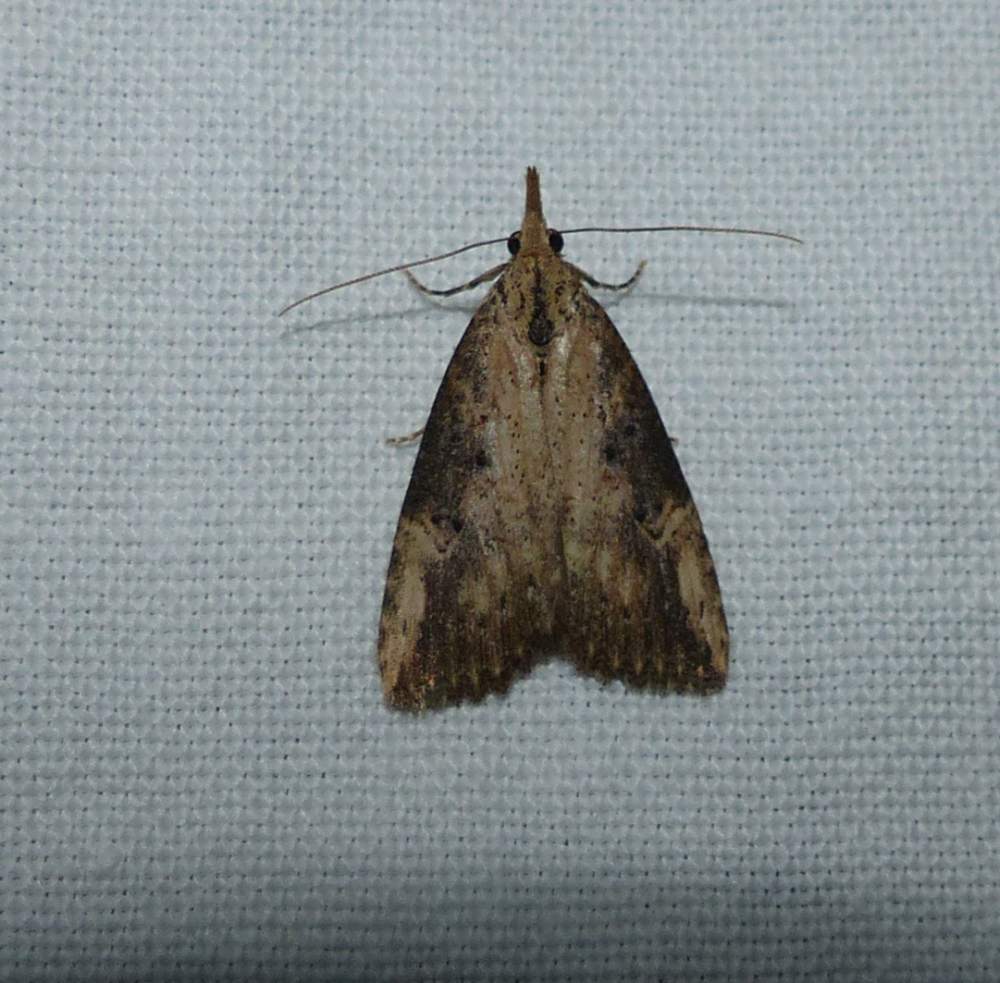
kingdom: Animalia
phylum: Arthropoda
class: Insecta
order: Lepidoptera
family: Erebidae
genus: Hypena
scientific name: Hypena humuli
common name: Hop vine snout
